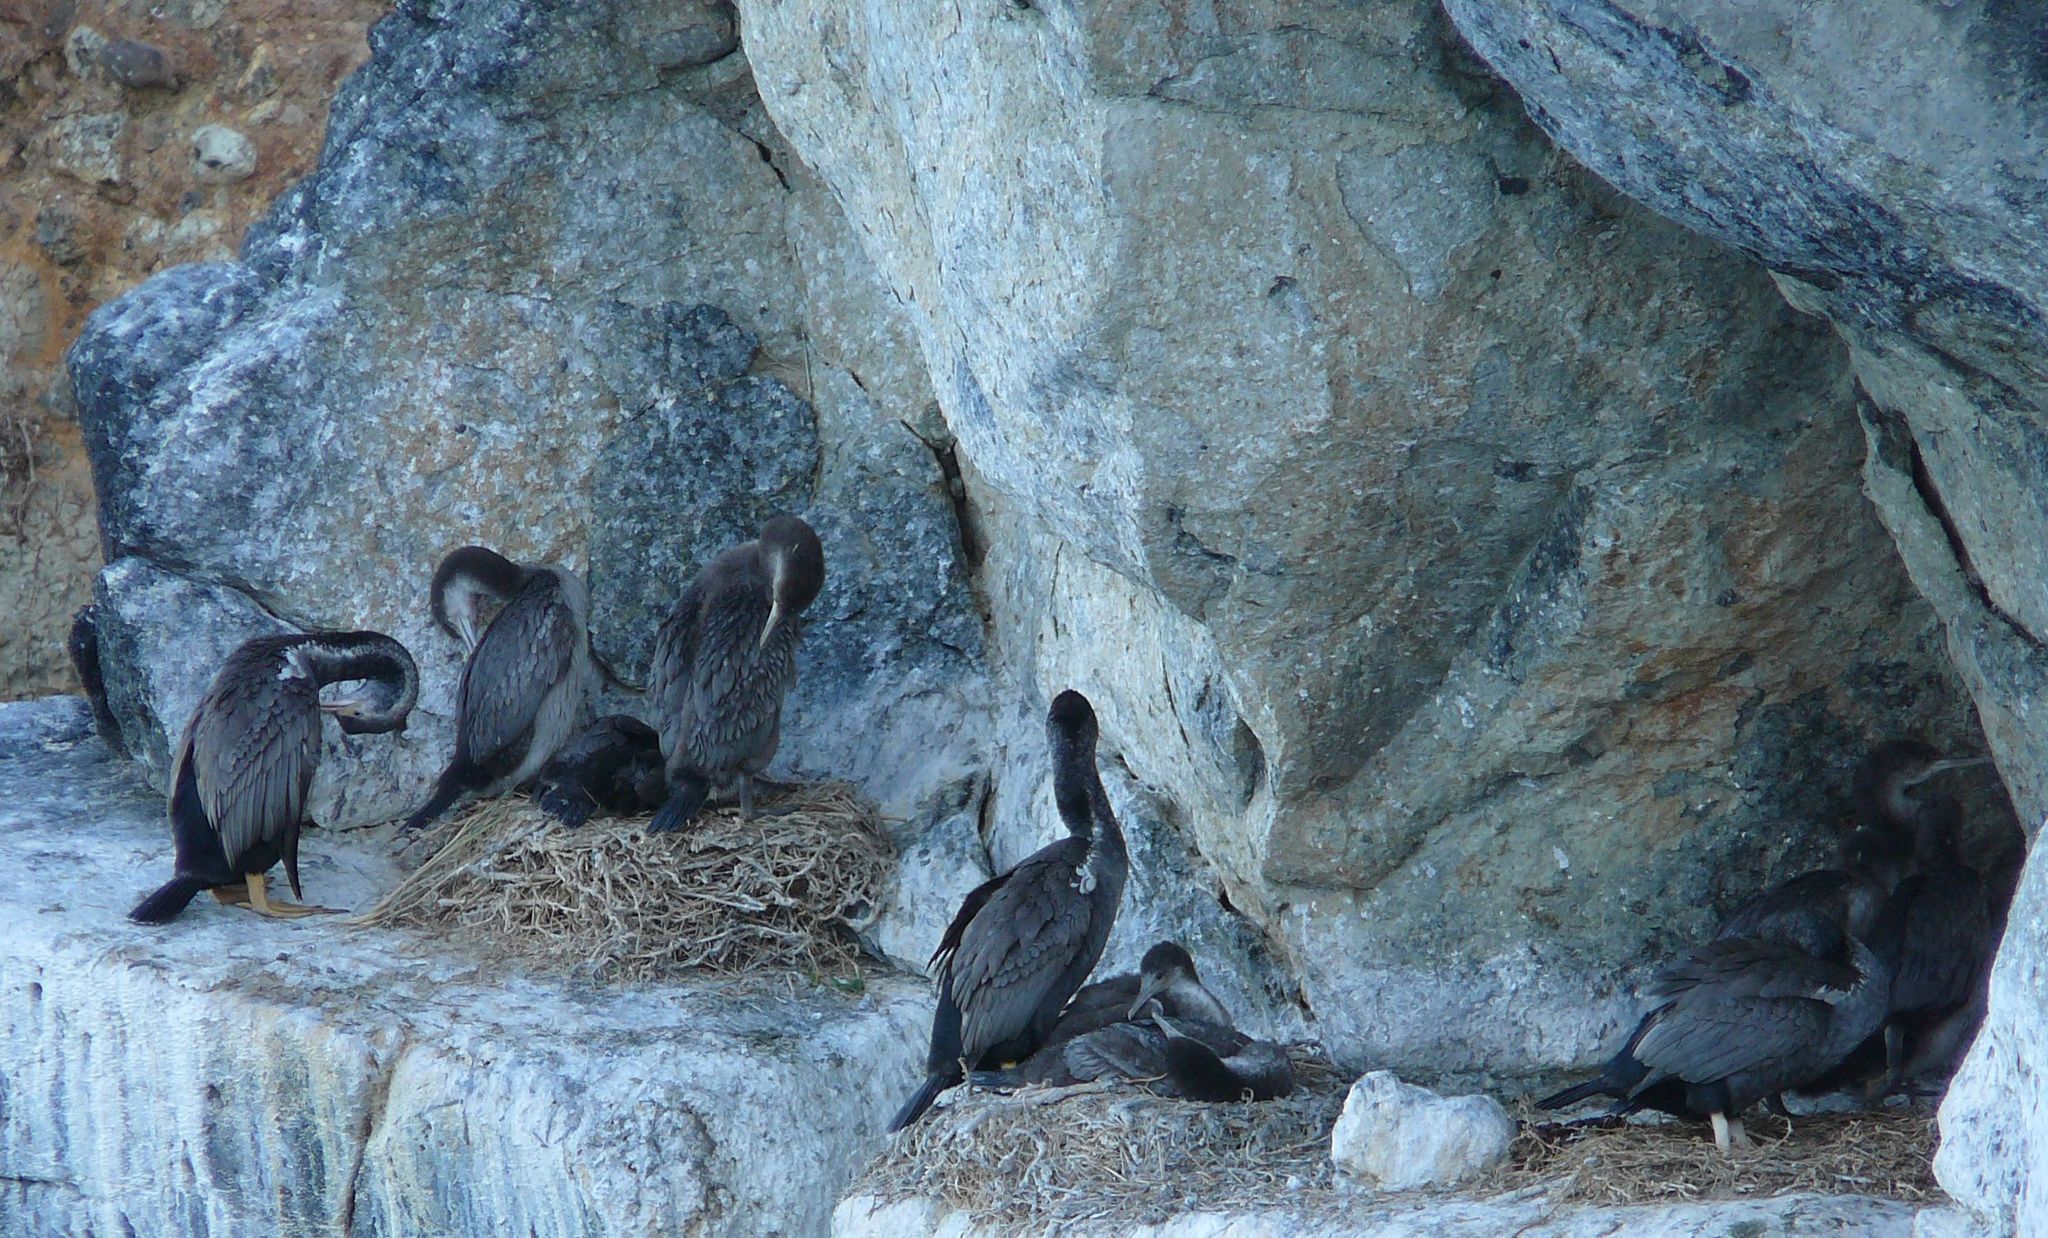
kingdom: Animalia
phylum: Chordata
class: Aves
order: Suliformes
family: Phalacrocoracidae
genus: Phalacrocorax
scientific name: Phalacrocorax punctatus
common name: Spotted shag
